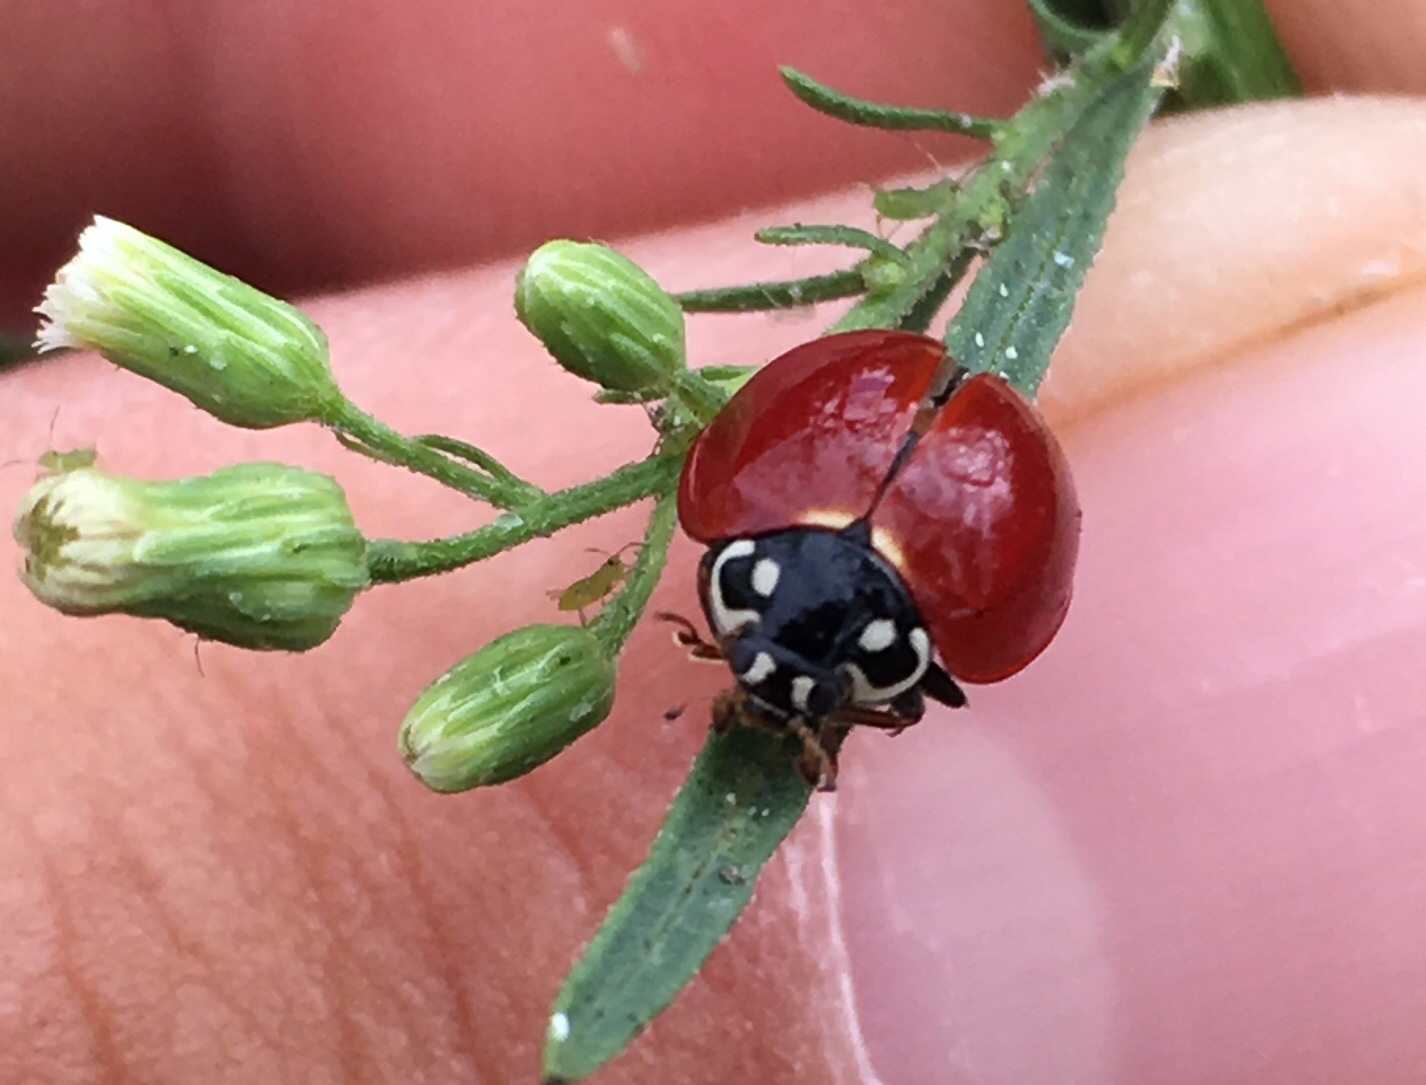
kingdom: Animalia
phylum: Arthropoda
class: Insecta
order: Coleoptera
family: Coccinellidae
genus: Cycloneda
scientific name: Cycloneda sanguinea
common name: Ladybird beetle
